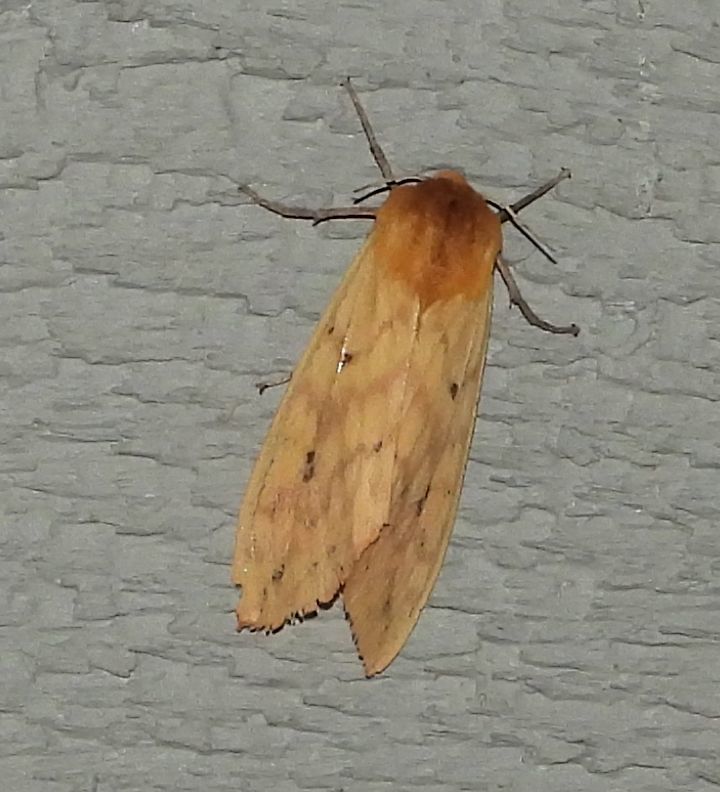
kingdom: Animalia
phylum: Arthropoda
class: Insecta
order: Lepidoptera
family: Erebidae
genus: Pyrrharctia
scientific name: Pyrrharctia isabella
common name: Isabella tiger moth
